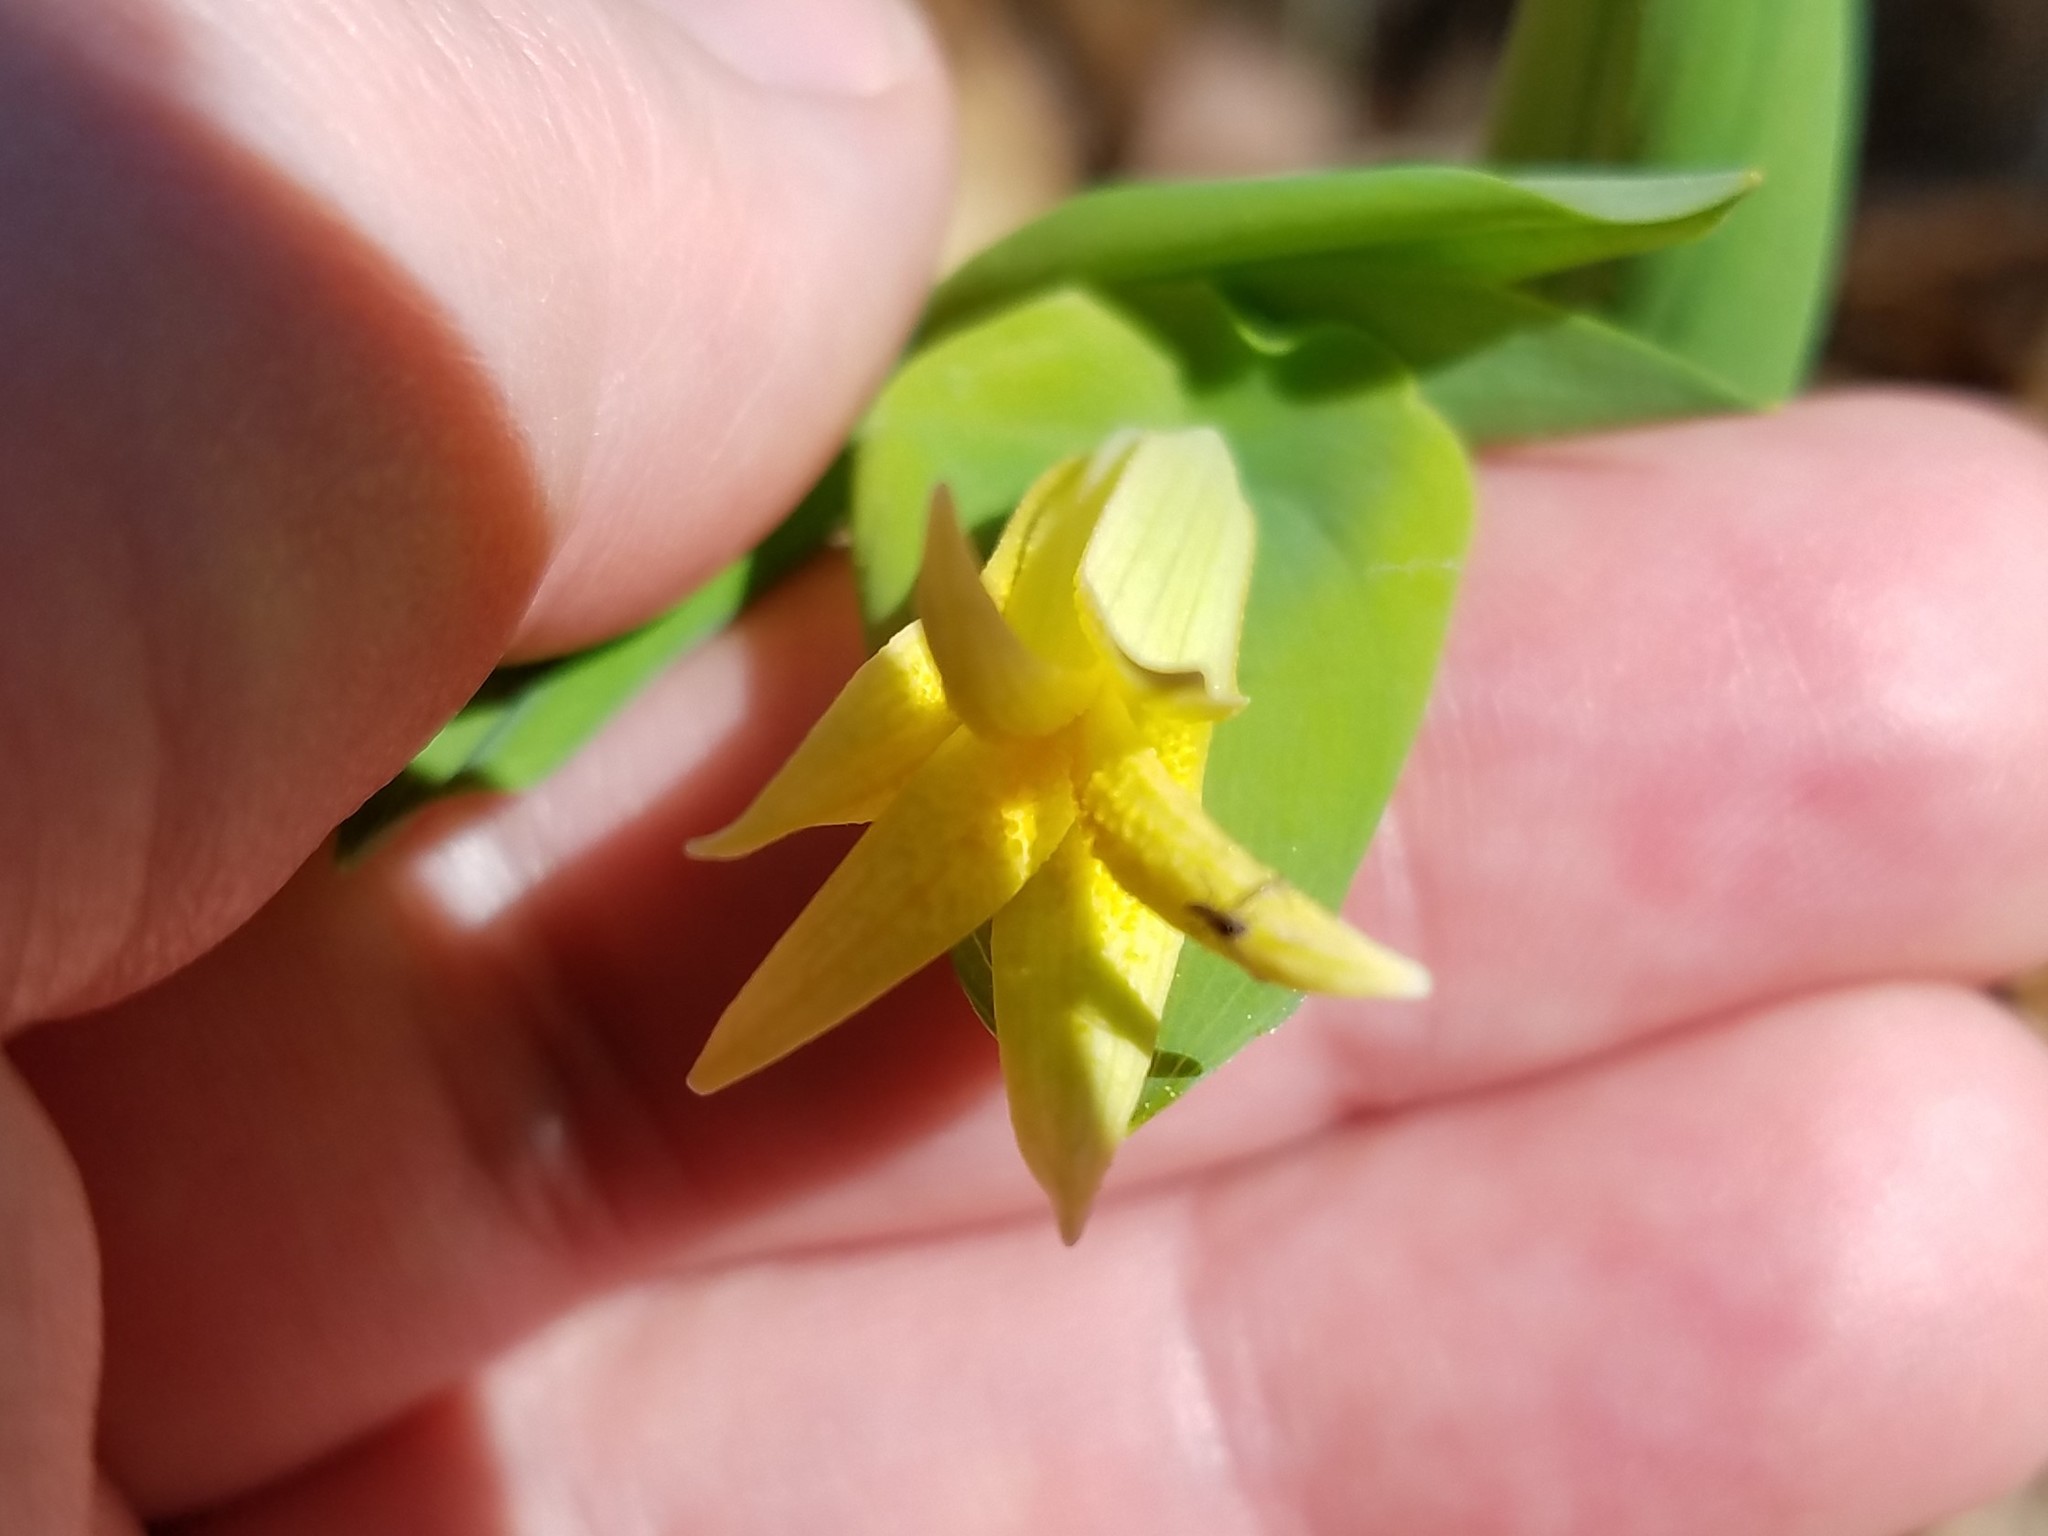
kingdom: Plantae
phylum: Tracheophyta
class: Liliopsida
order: Liliales
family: Colchicaceae
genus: Uvularia
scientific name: Uvularia perfoliata
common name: Perfoliate bellwort
